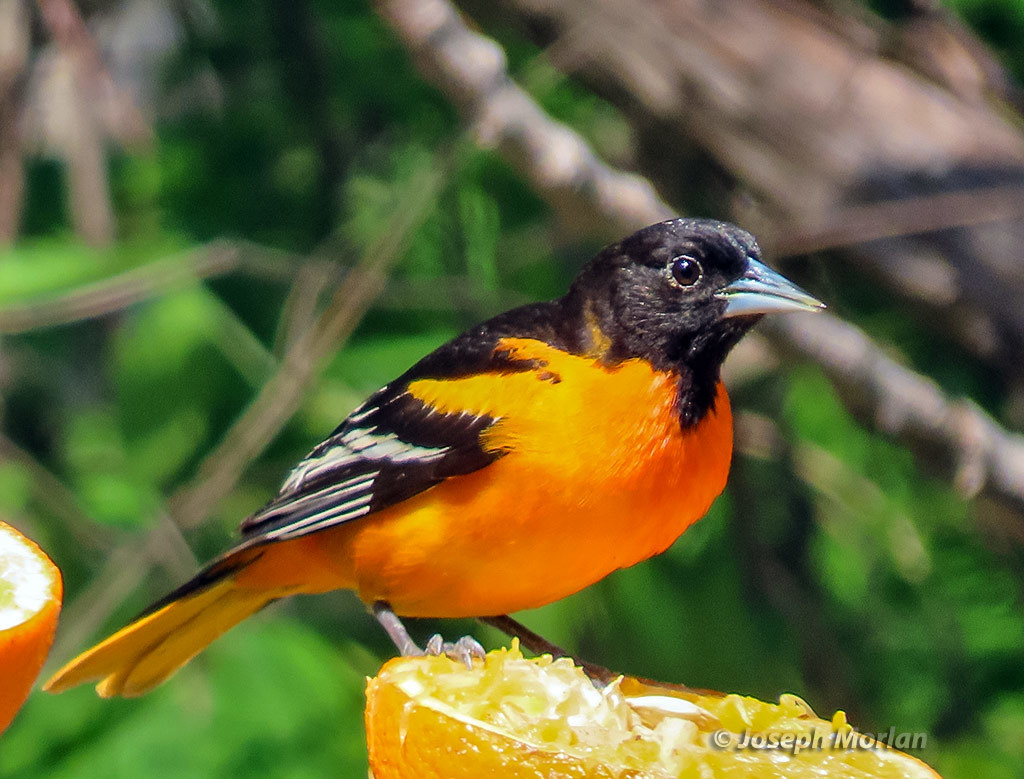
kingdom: Animalia
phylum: Chordata
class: Aves
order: Passeriformes
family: Icteridae
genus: Icterus
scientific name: Icterus galbula
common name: Baltimore oriole
